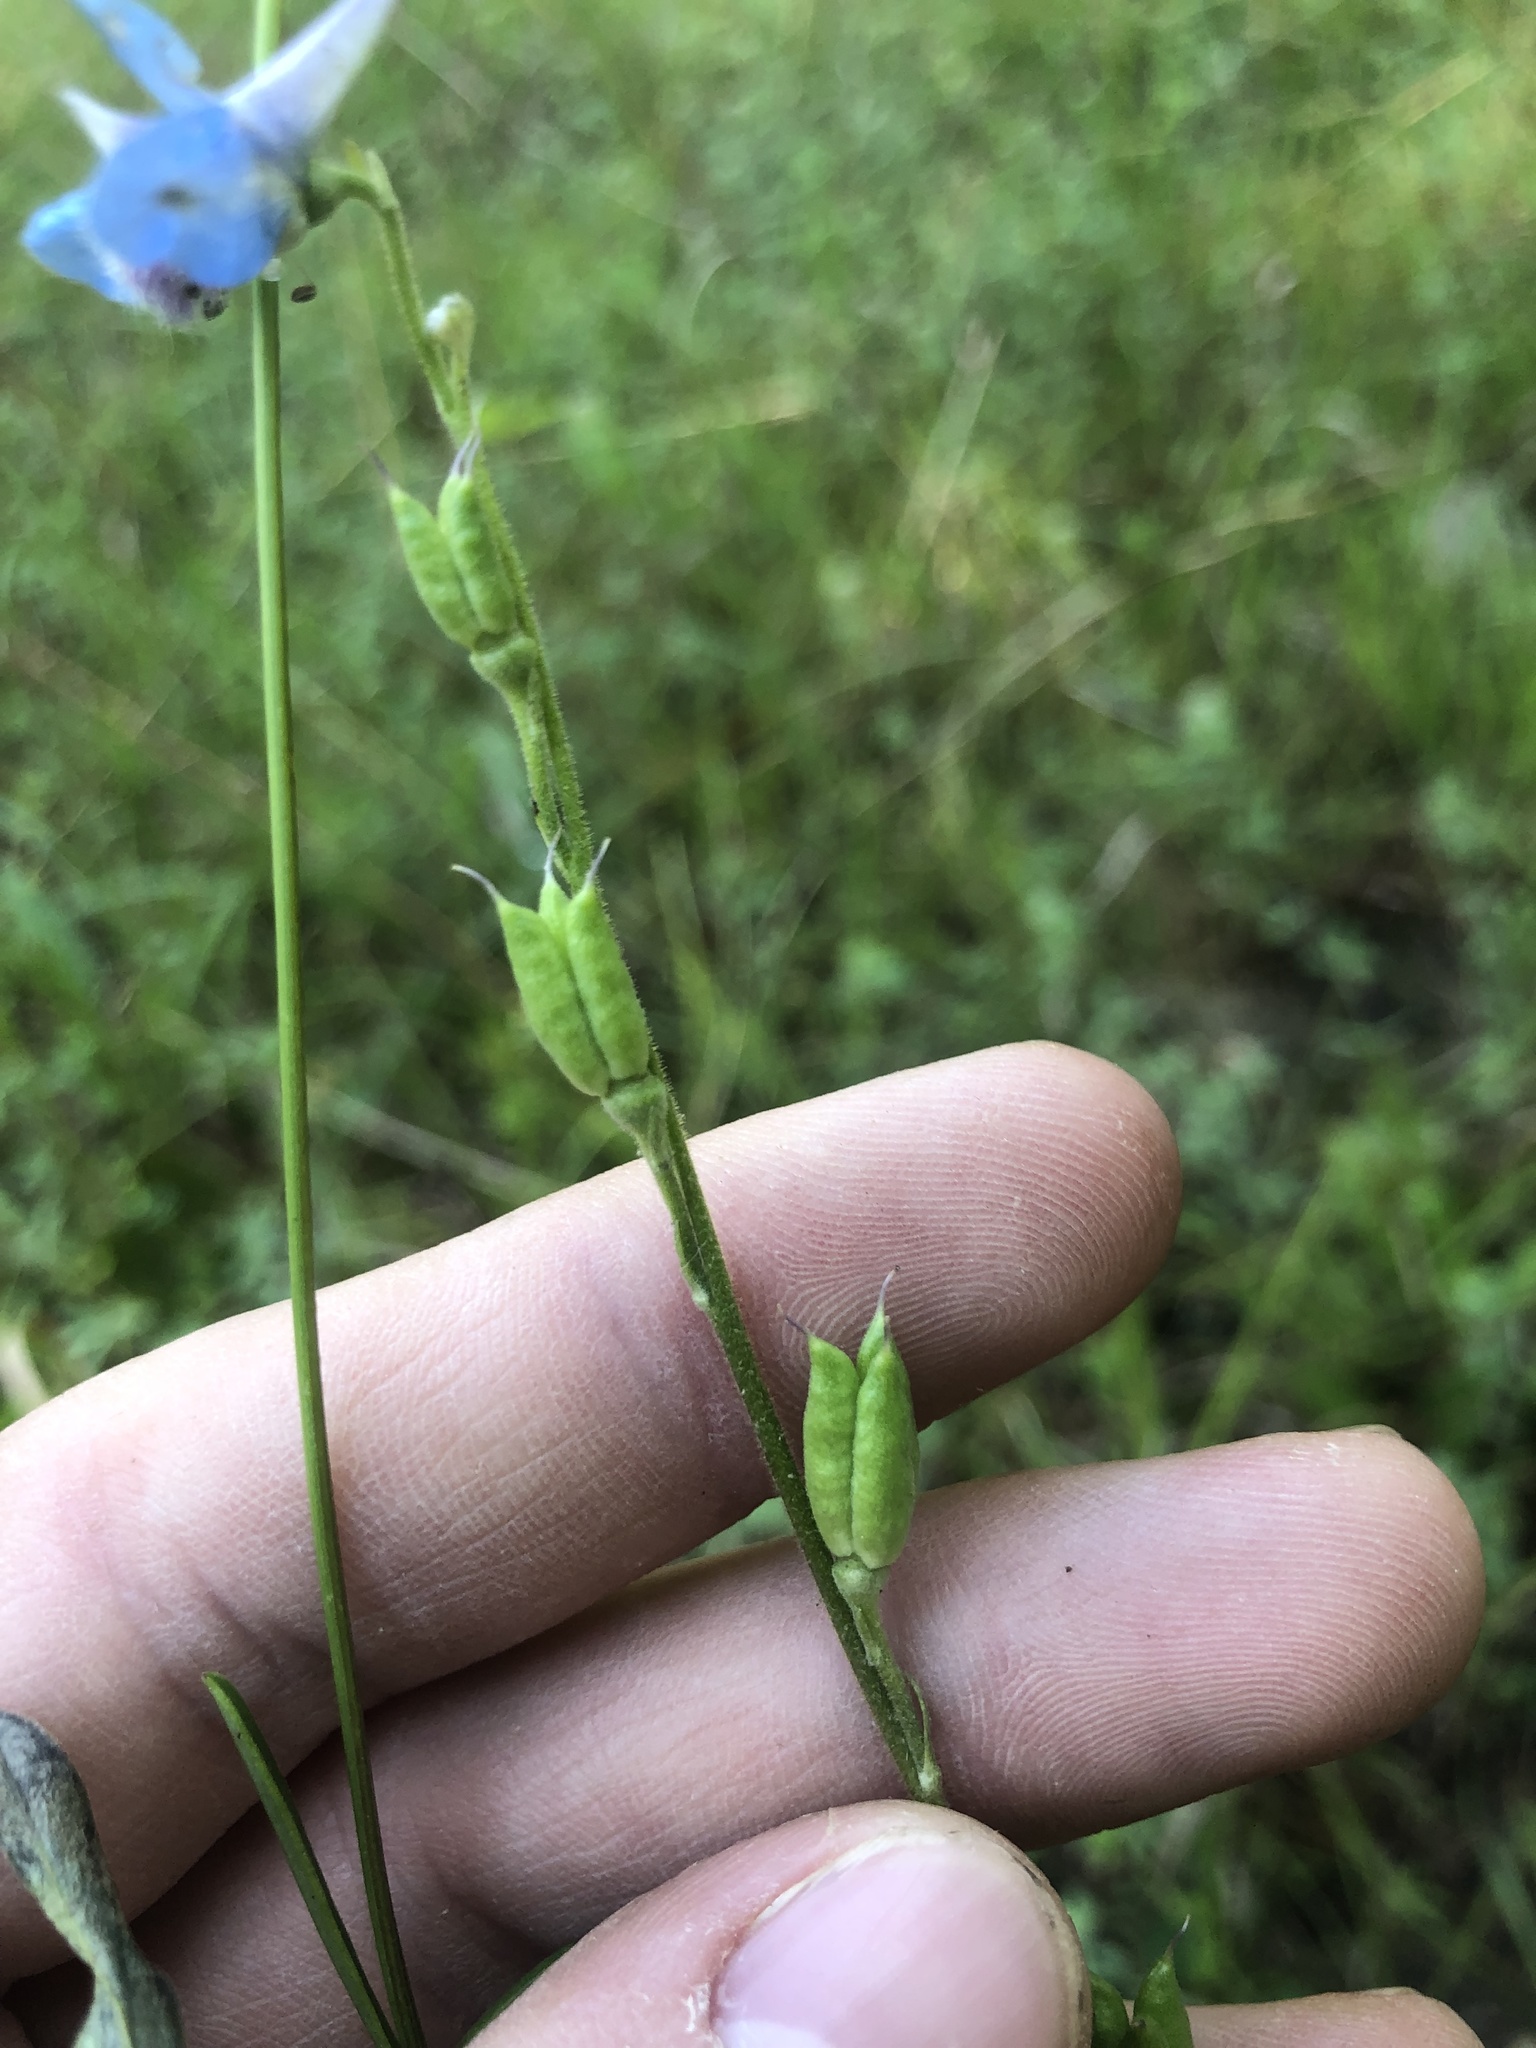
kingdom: Plantae
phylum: Tracheophyta
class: Magnoliopsida
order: Ranunculales
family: Ranunculaceae
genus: Delphinium
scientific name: Delphinium carolinianum
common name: Carolina larkspur
